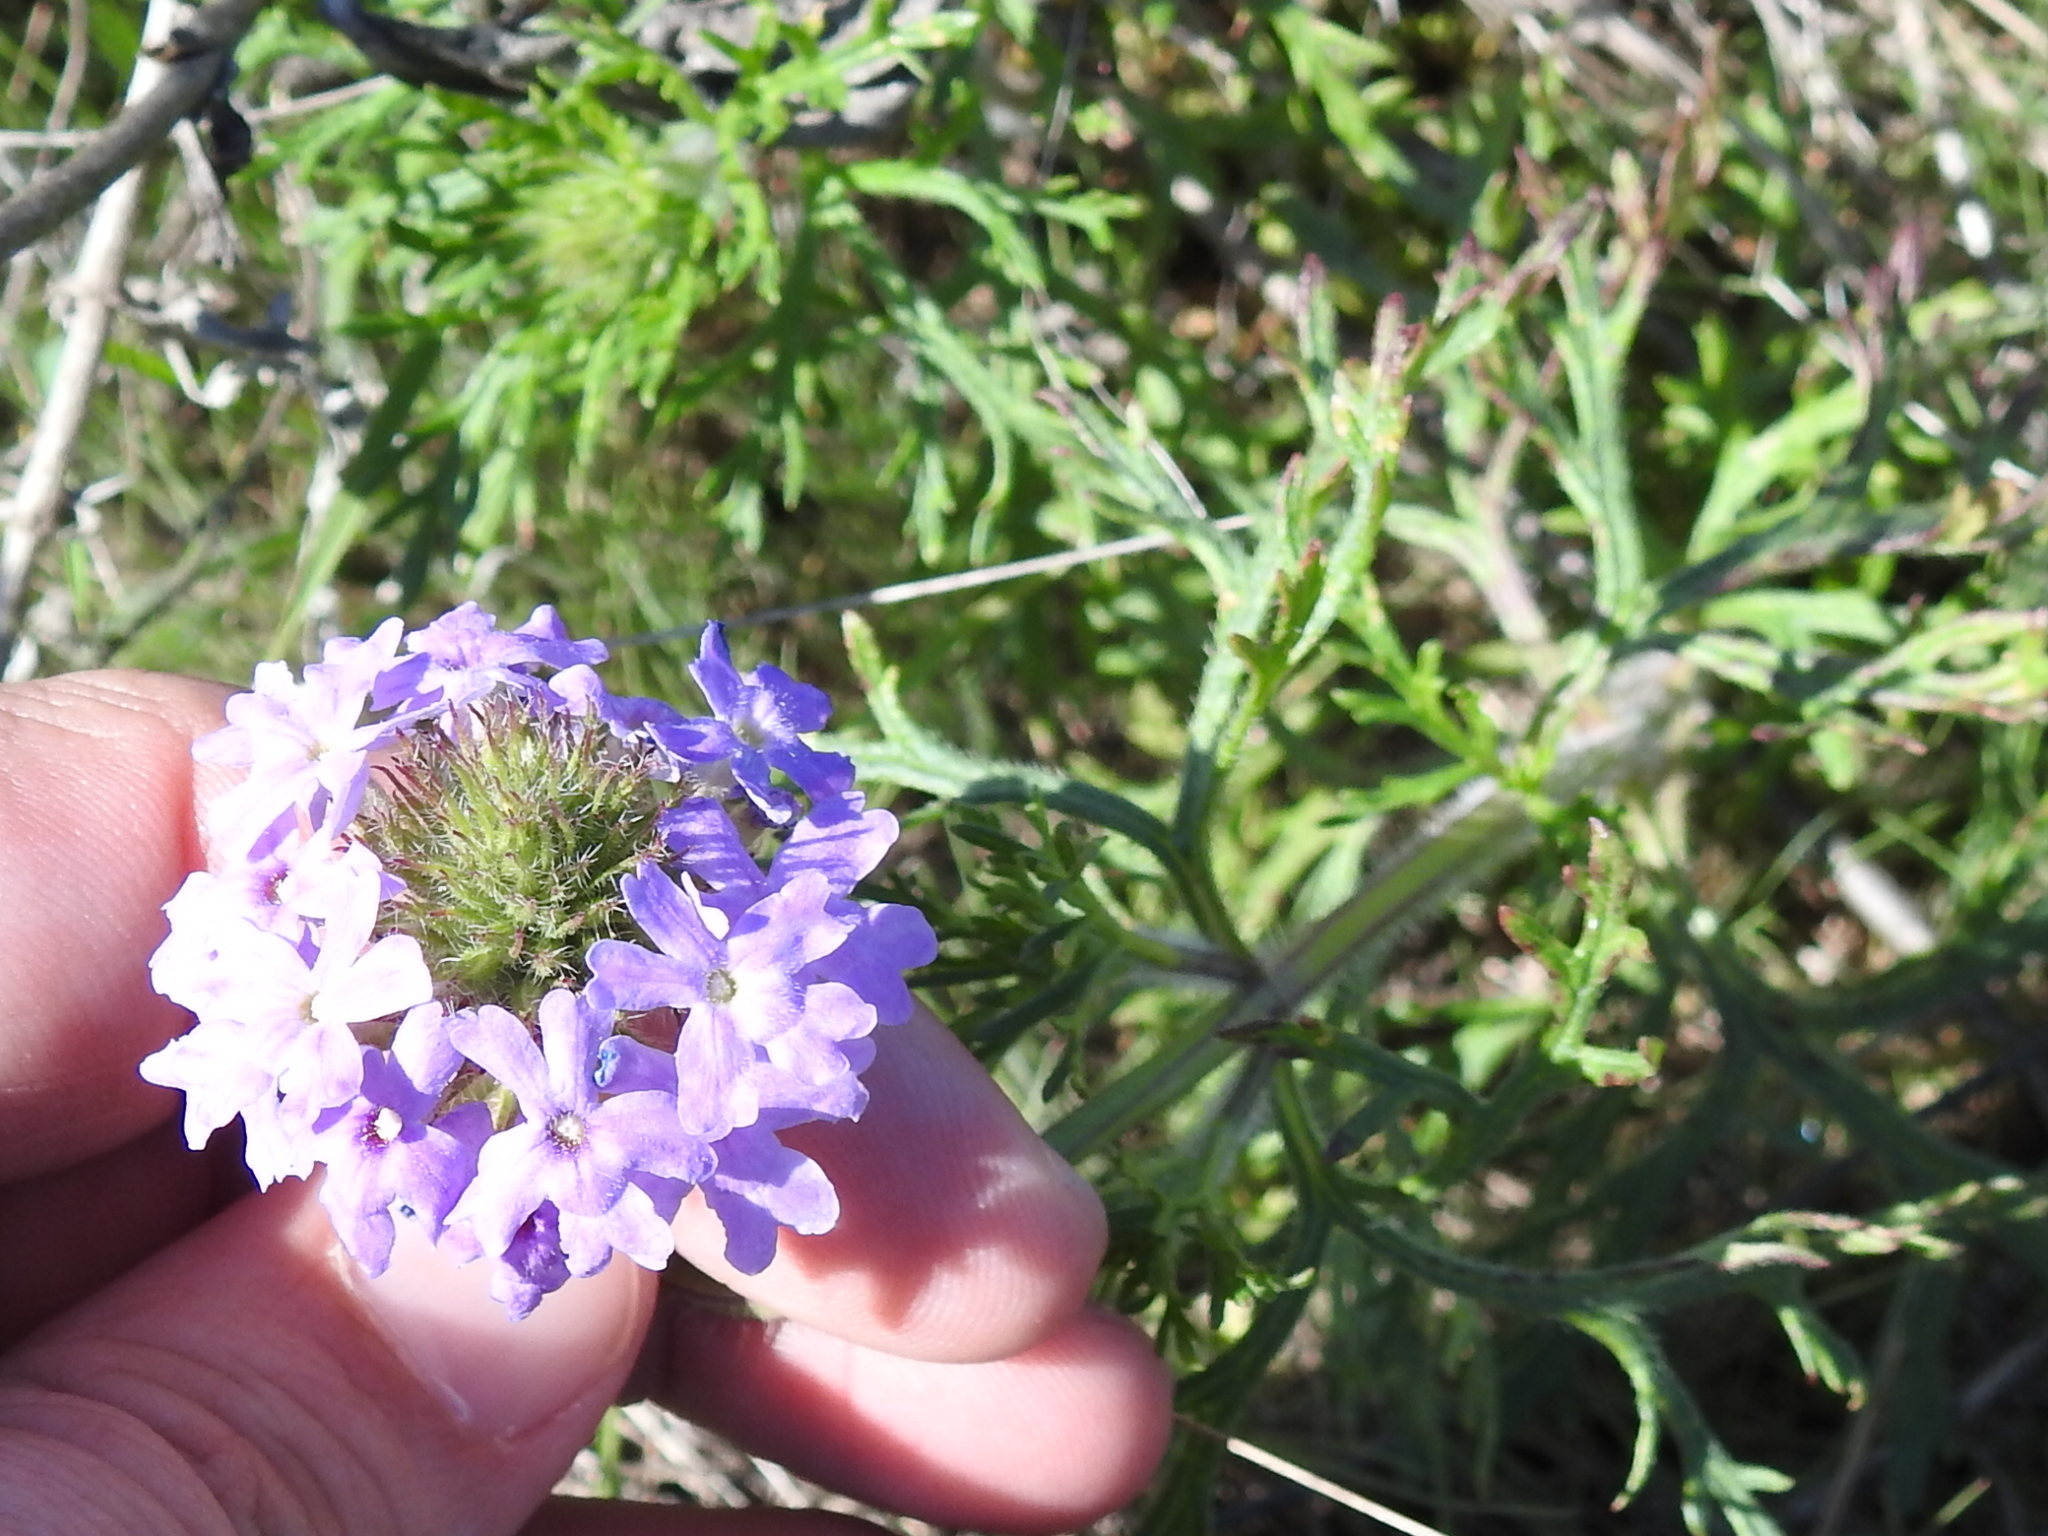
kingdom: Plantae
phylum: Tracheophyta
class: Magnoliopsida
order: Lamiales
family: Verbenaceae
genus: Verbena
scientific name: Verbena bipinnatifida
